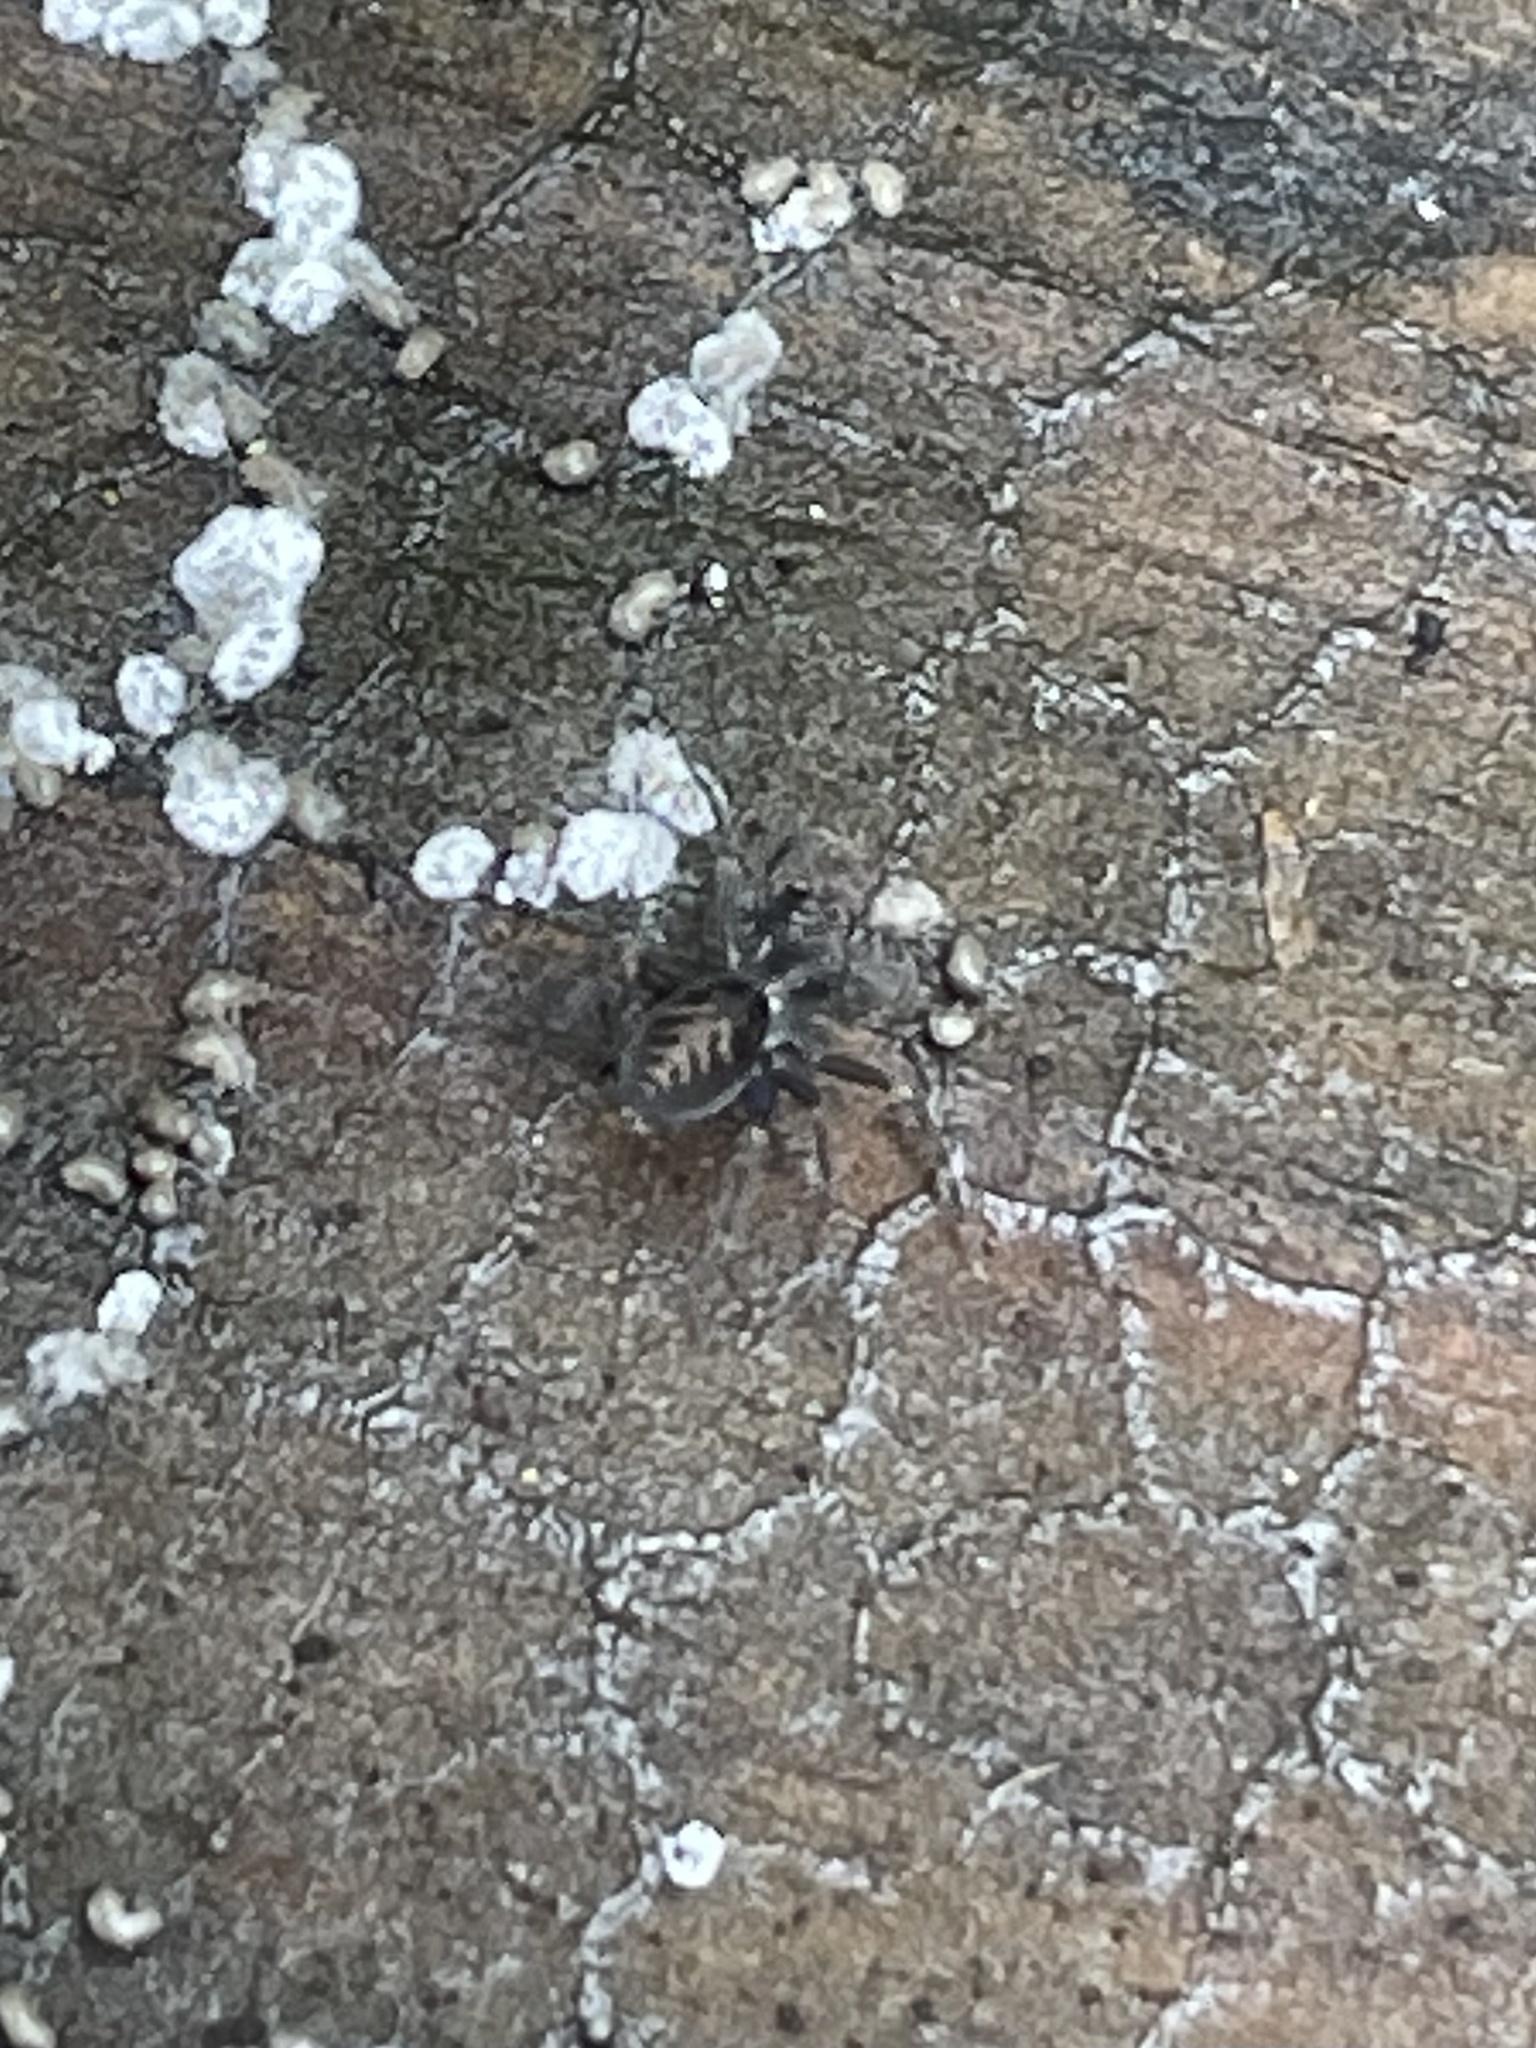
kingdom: Animalia
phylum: Arthropoda
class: Arachnida
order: Araneae
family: Desidae
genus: Metaltella
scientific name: Metaltella simoni
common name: Cribellate spider
